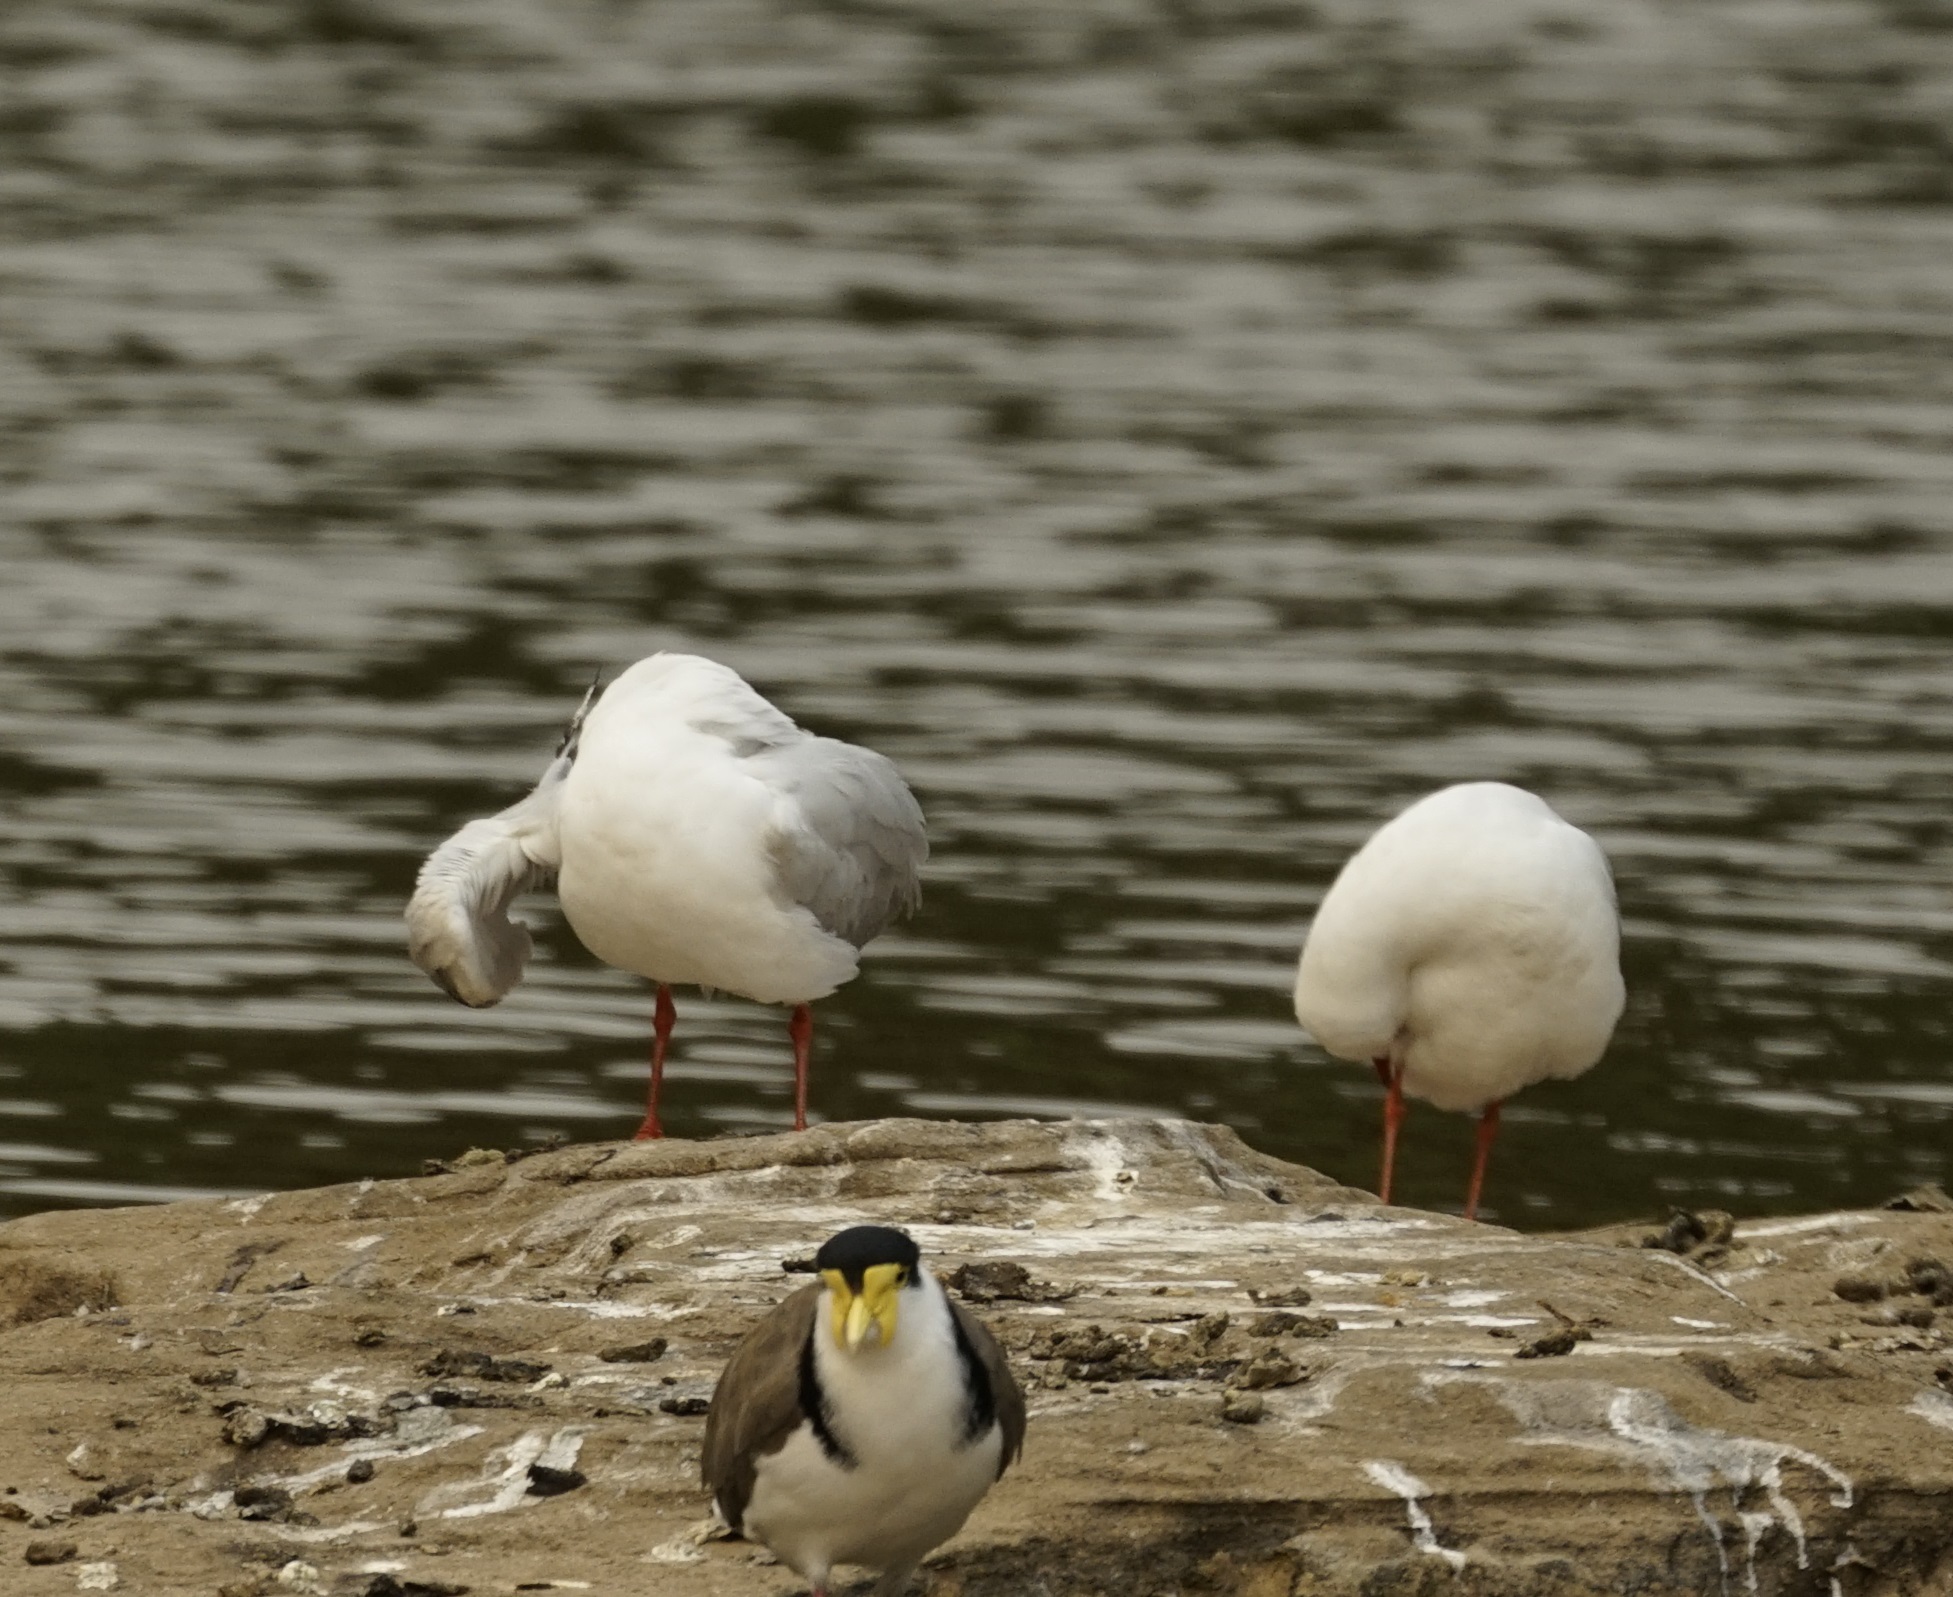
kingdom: Animalia
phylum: Chordata
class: Aves
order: Charadriiformes
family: Laridae
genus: Chroicocephalus
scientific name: Chroicocephalus novaehollandiae
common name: Silver gull
